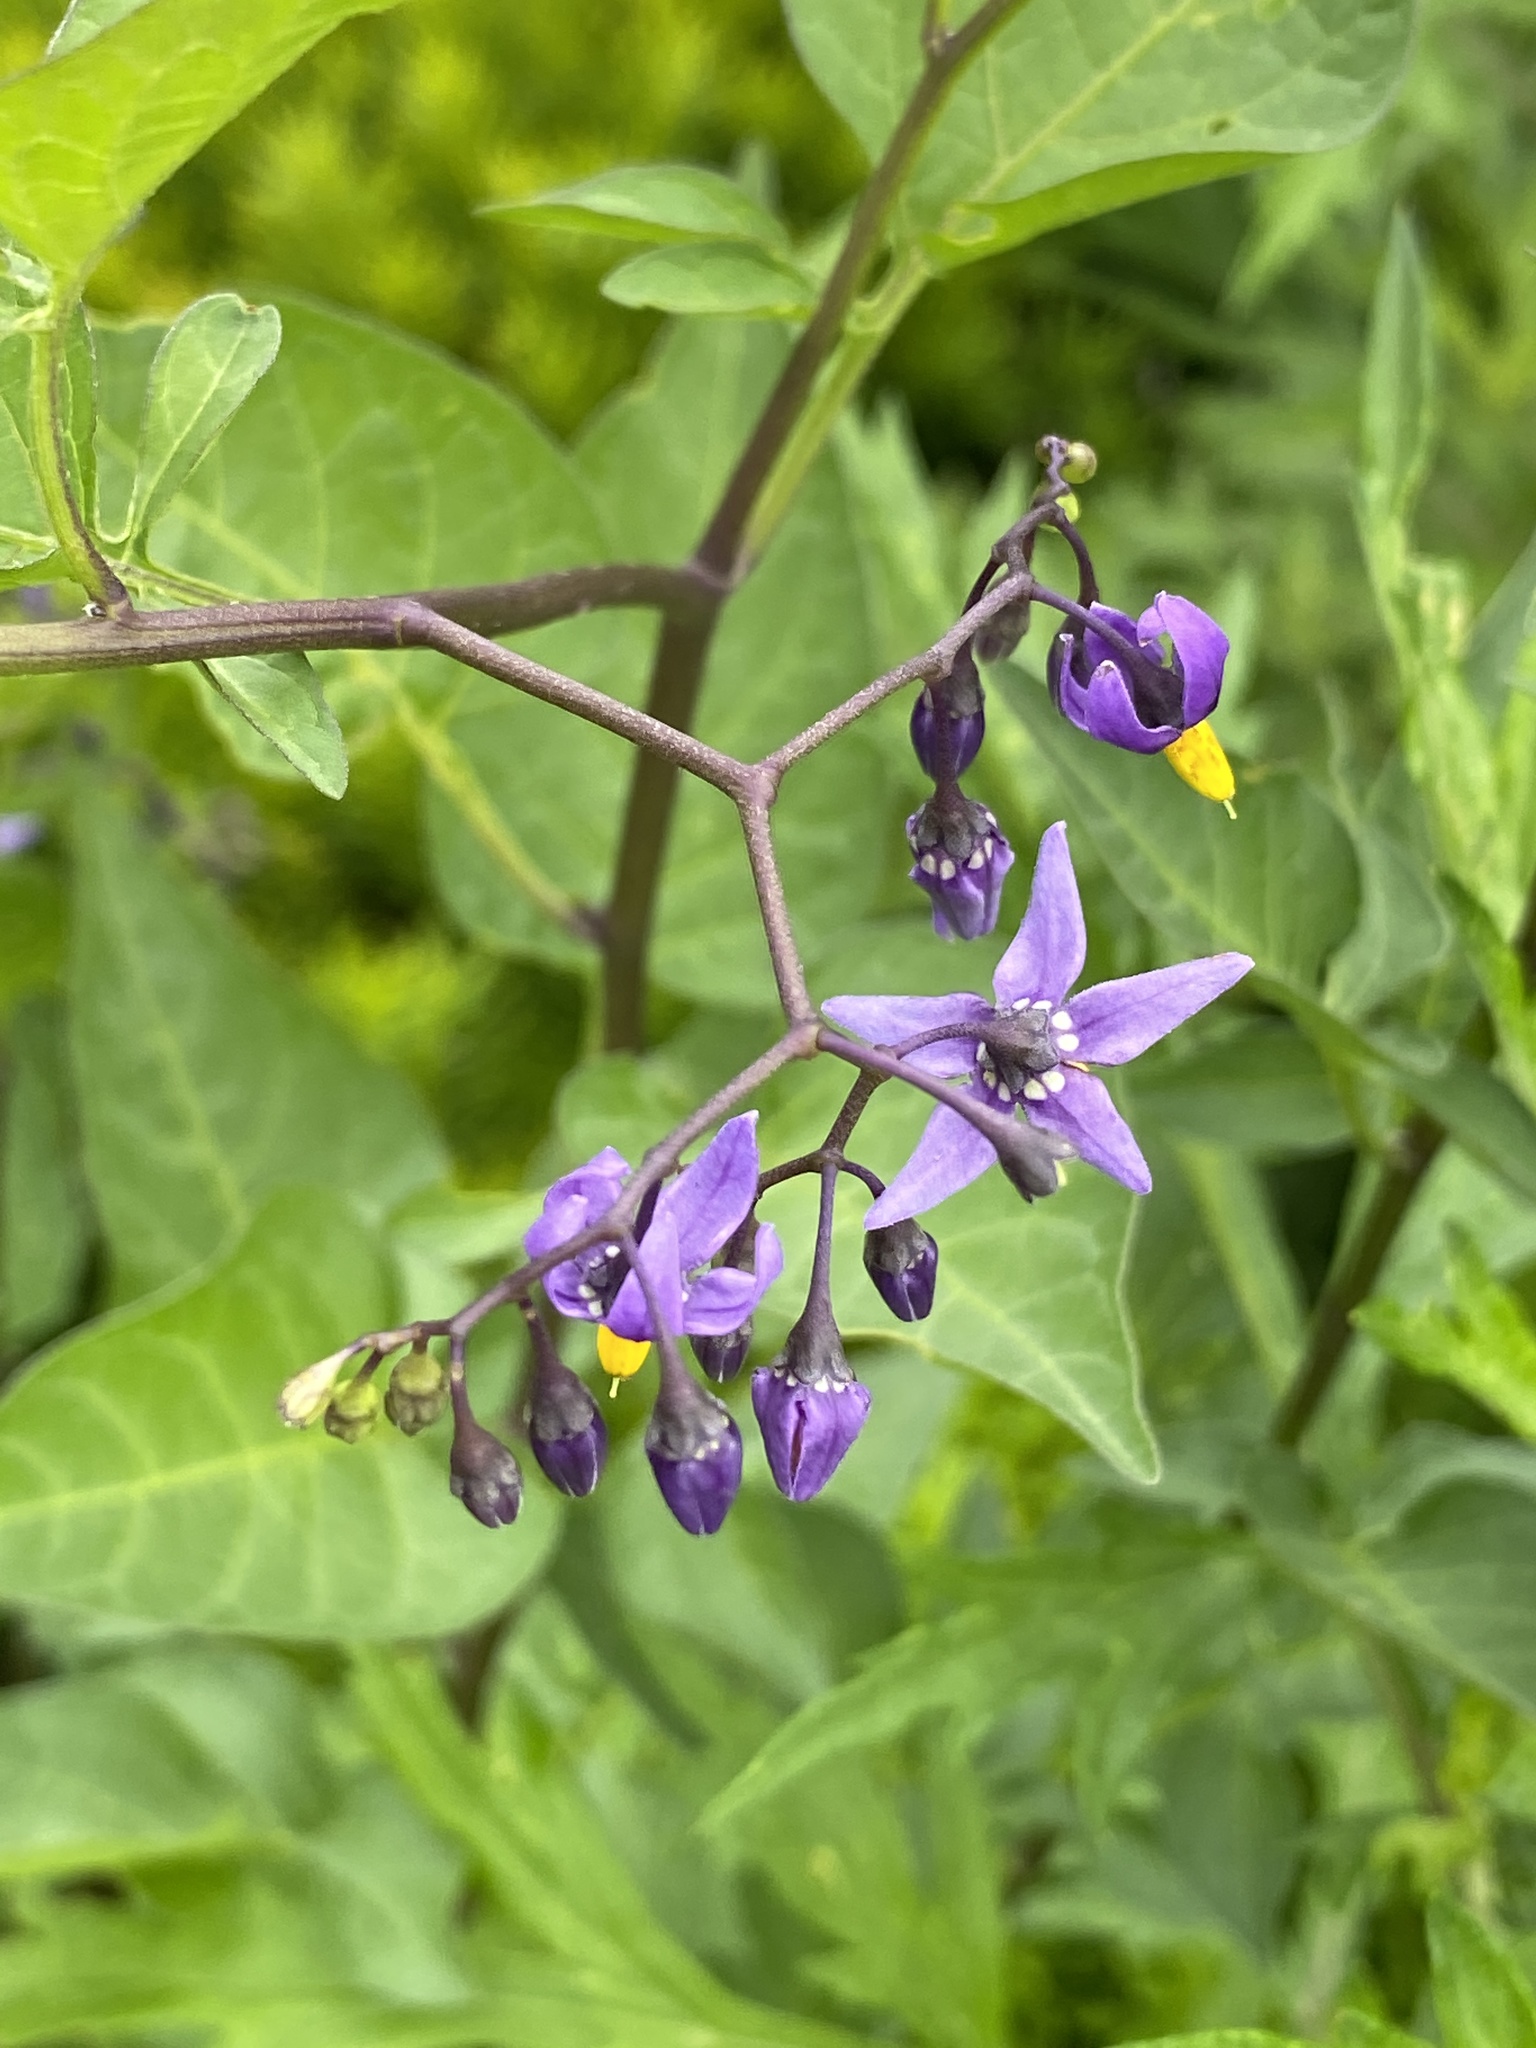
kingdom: Plantae
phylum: Tracheophyta
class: Magnoliopsida
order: Solanales
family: Solanaceae
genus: Solanum
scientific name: Solanum dulcamara
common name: Climbing nightshade
